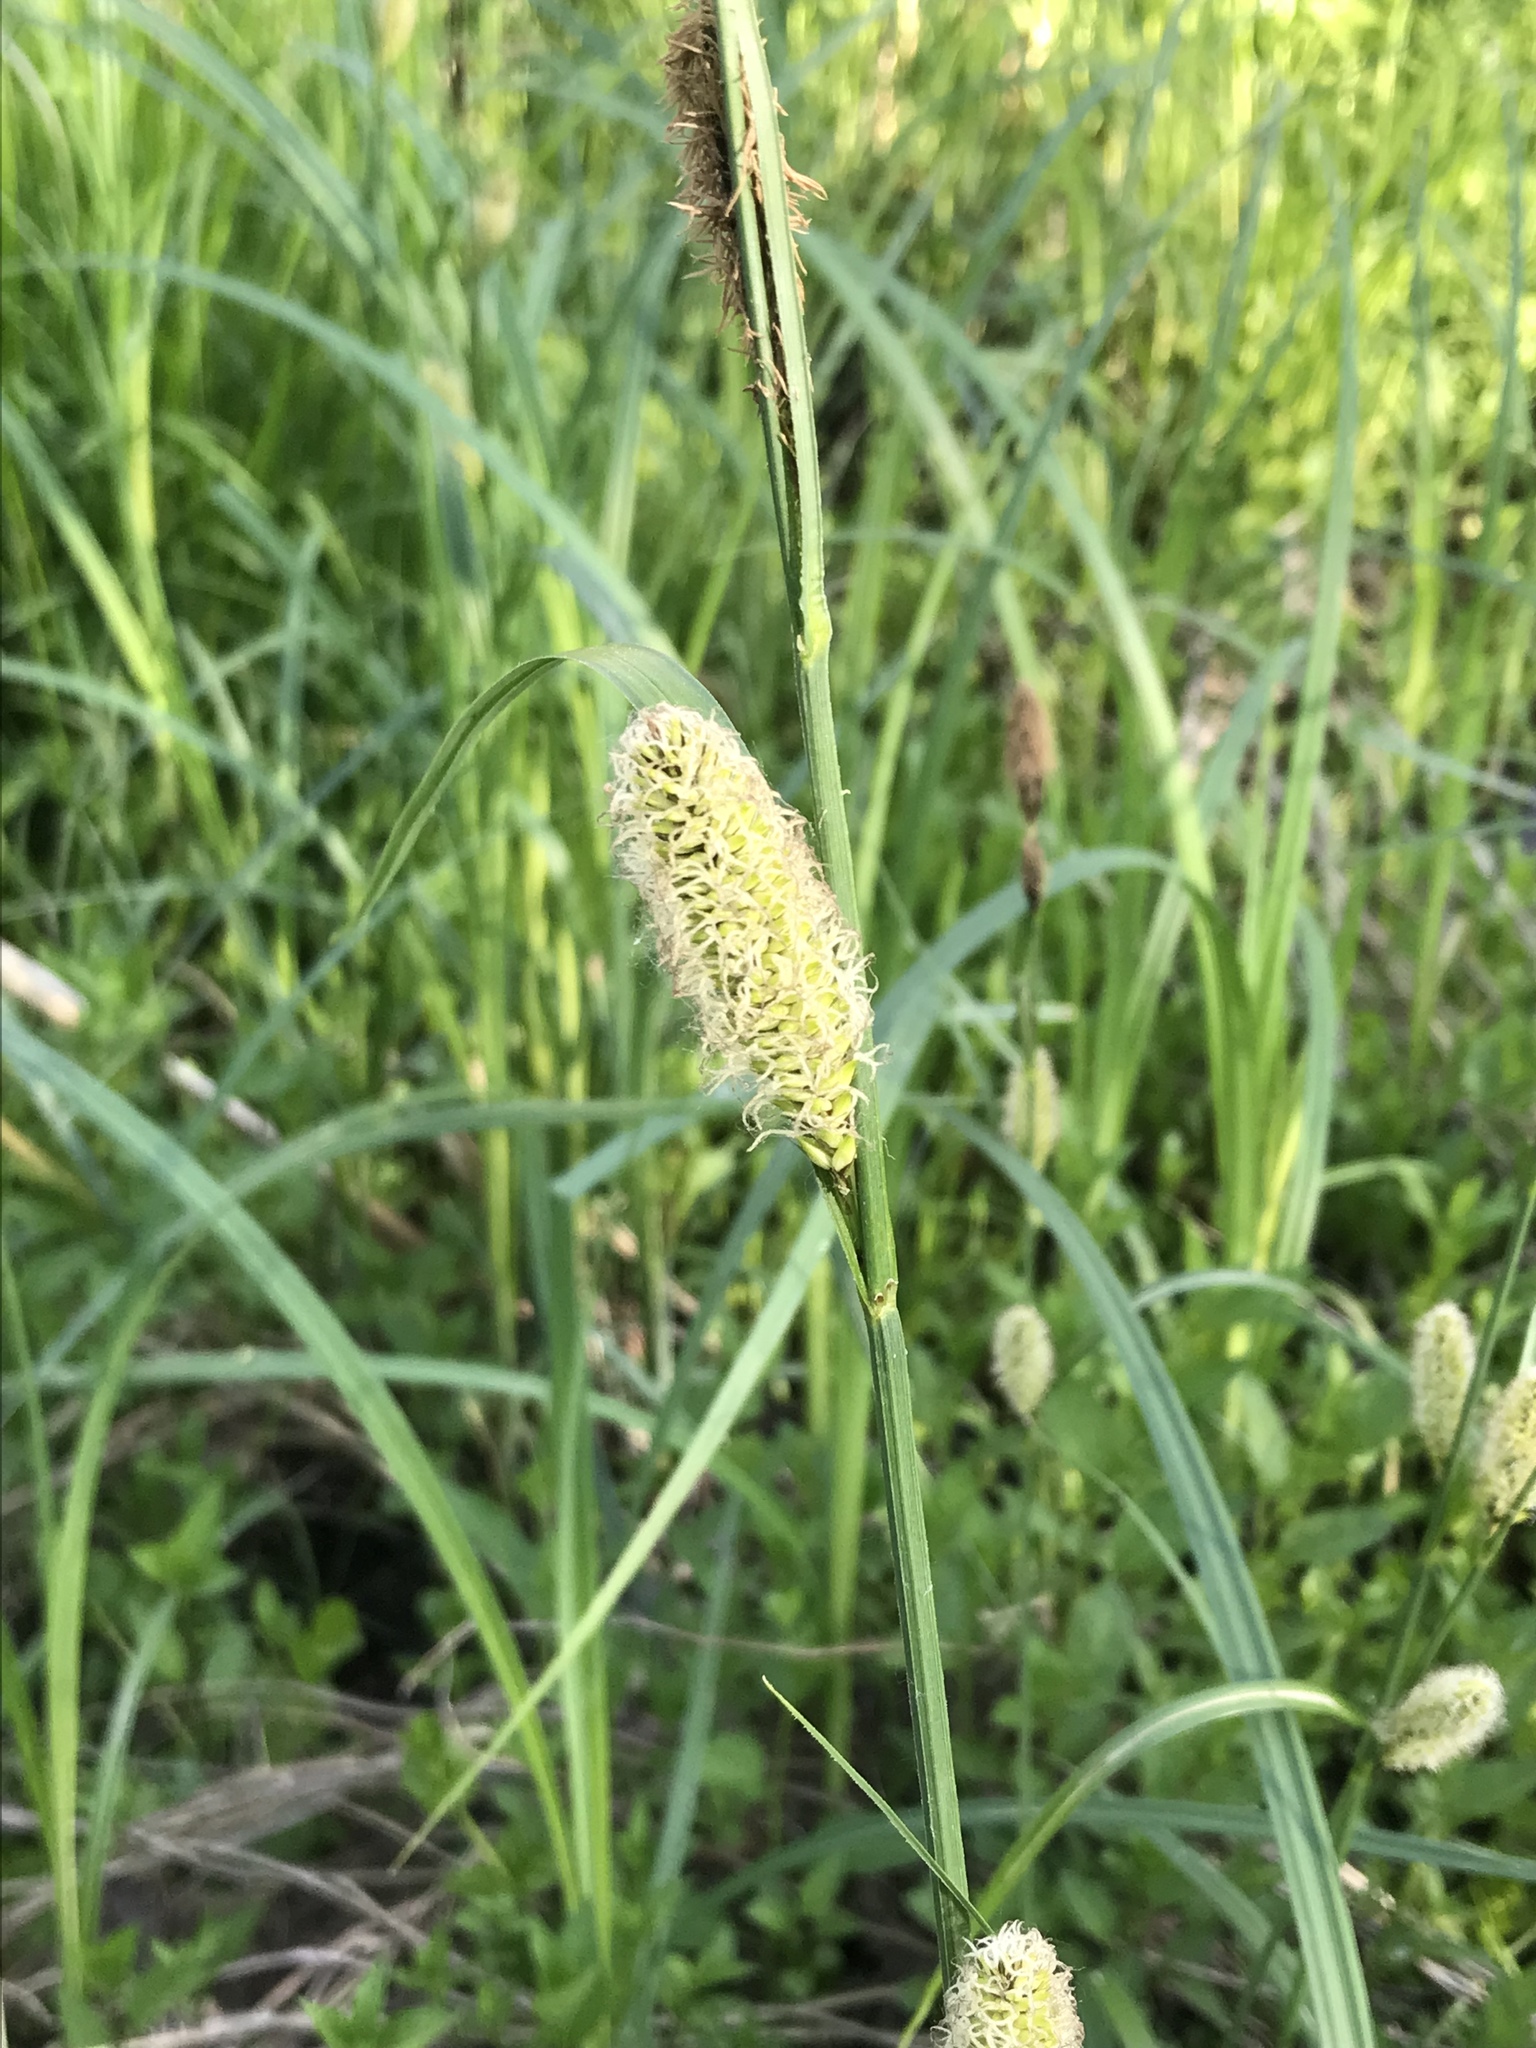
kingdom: Plantae
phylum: Tracheophyta
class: Liliopsida
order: Poales
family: Cyperaceae
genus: Carex
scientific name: Carex lacustris
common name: Common lake sedge
